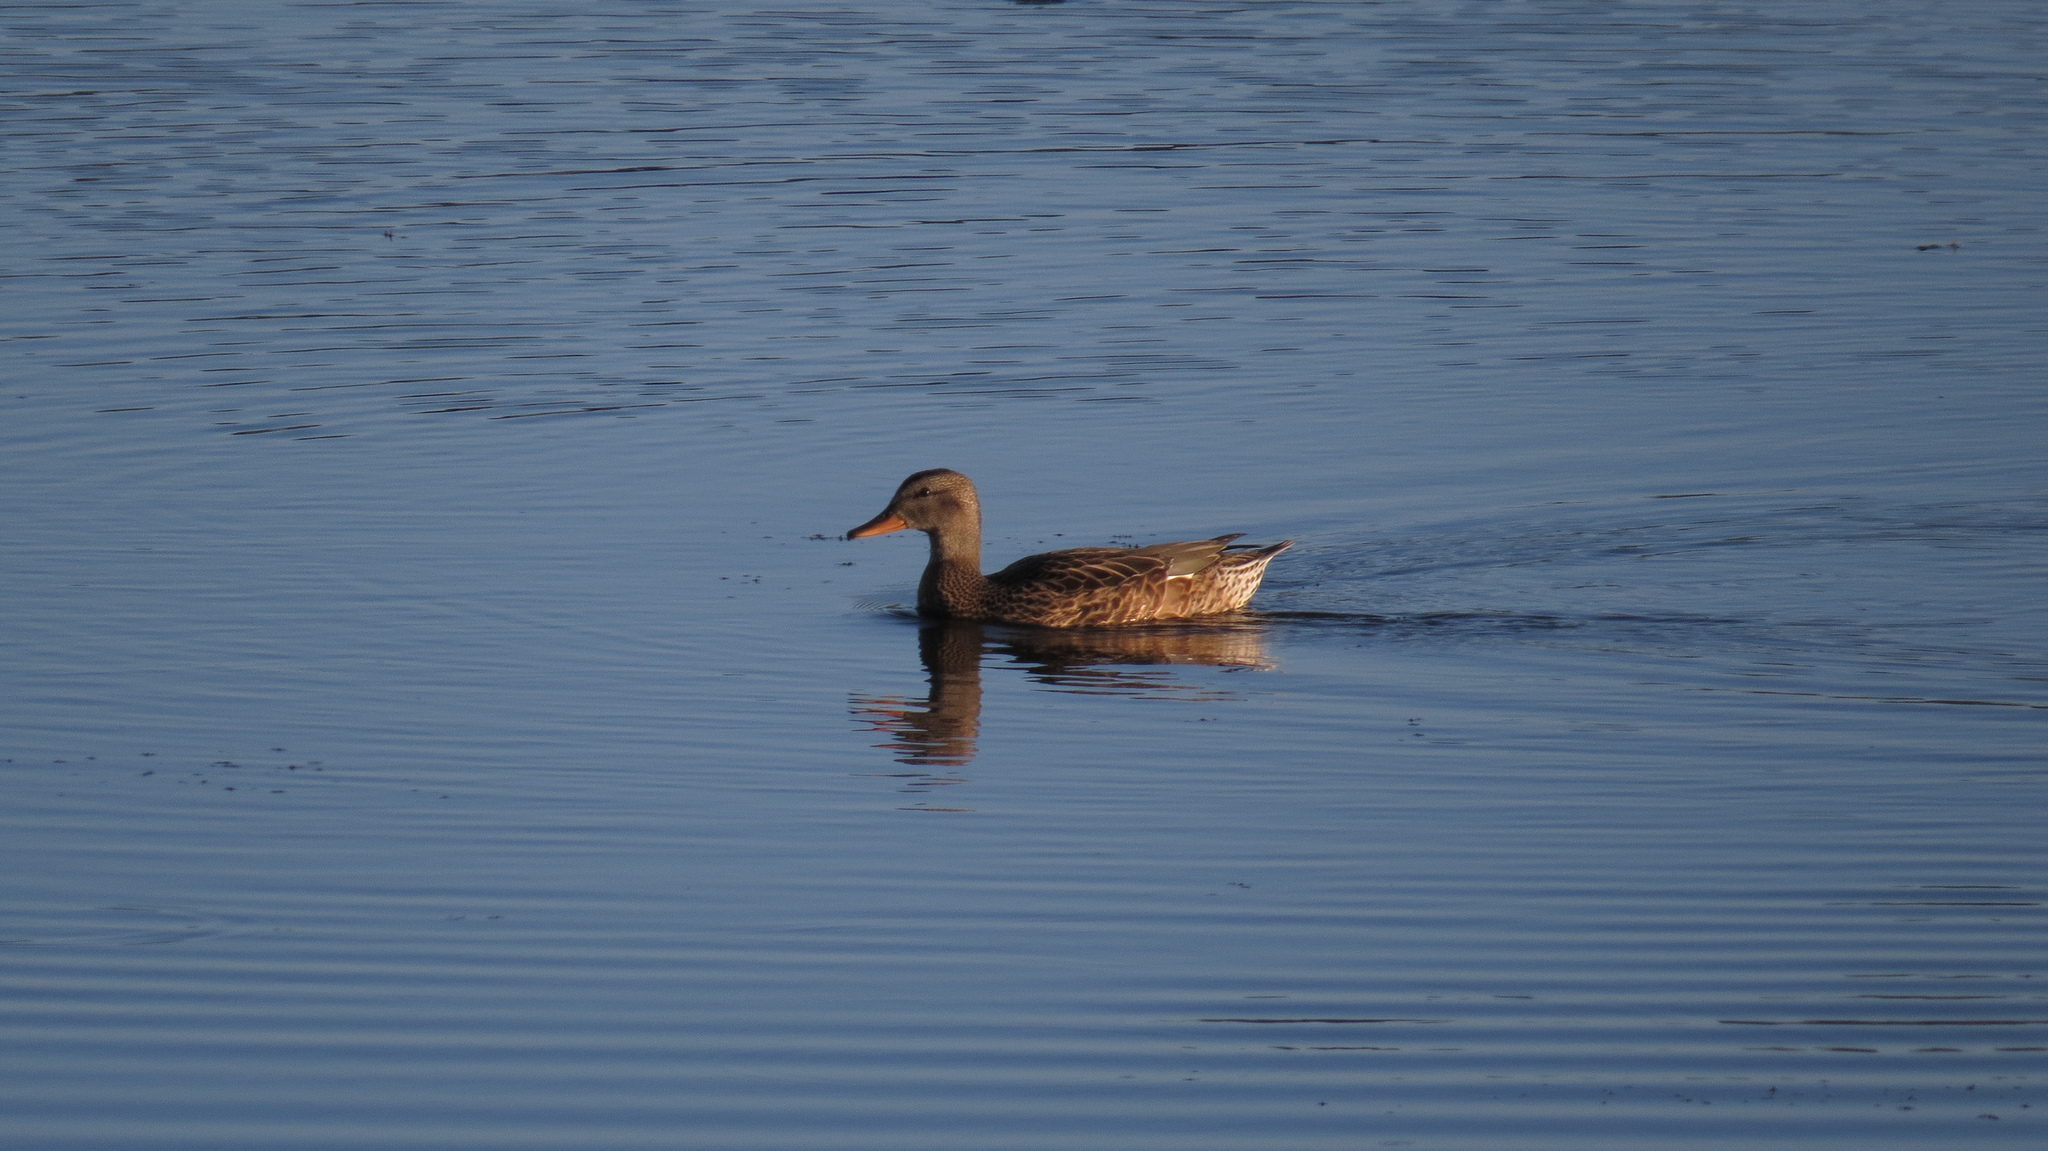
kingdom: Animalia
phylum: Chordata
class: Aves
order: Anseriformes
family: Anatidae
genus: Mareca
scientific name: Mareca strepera
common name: Gadwall
